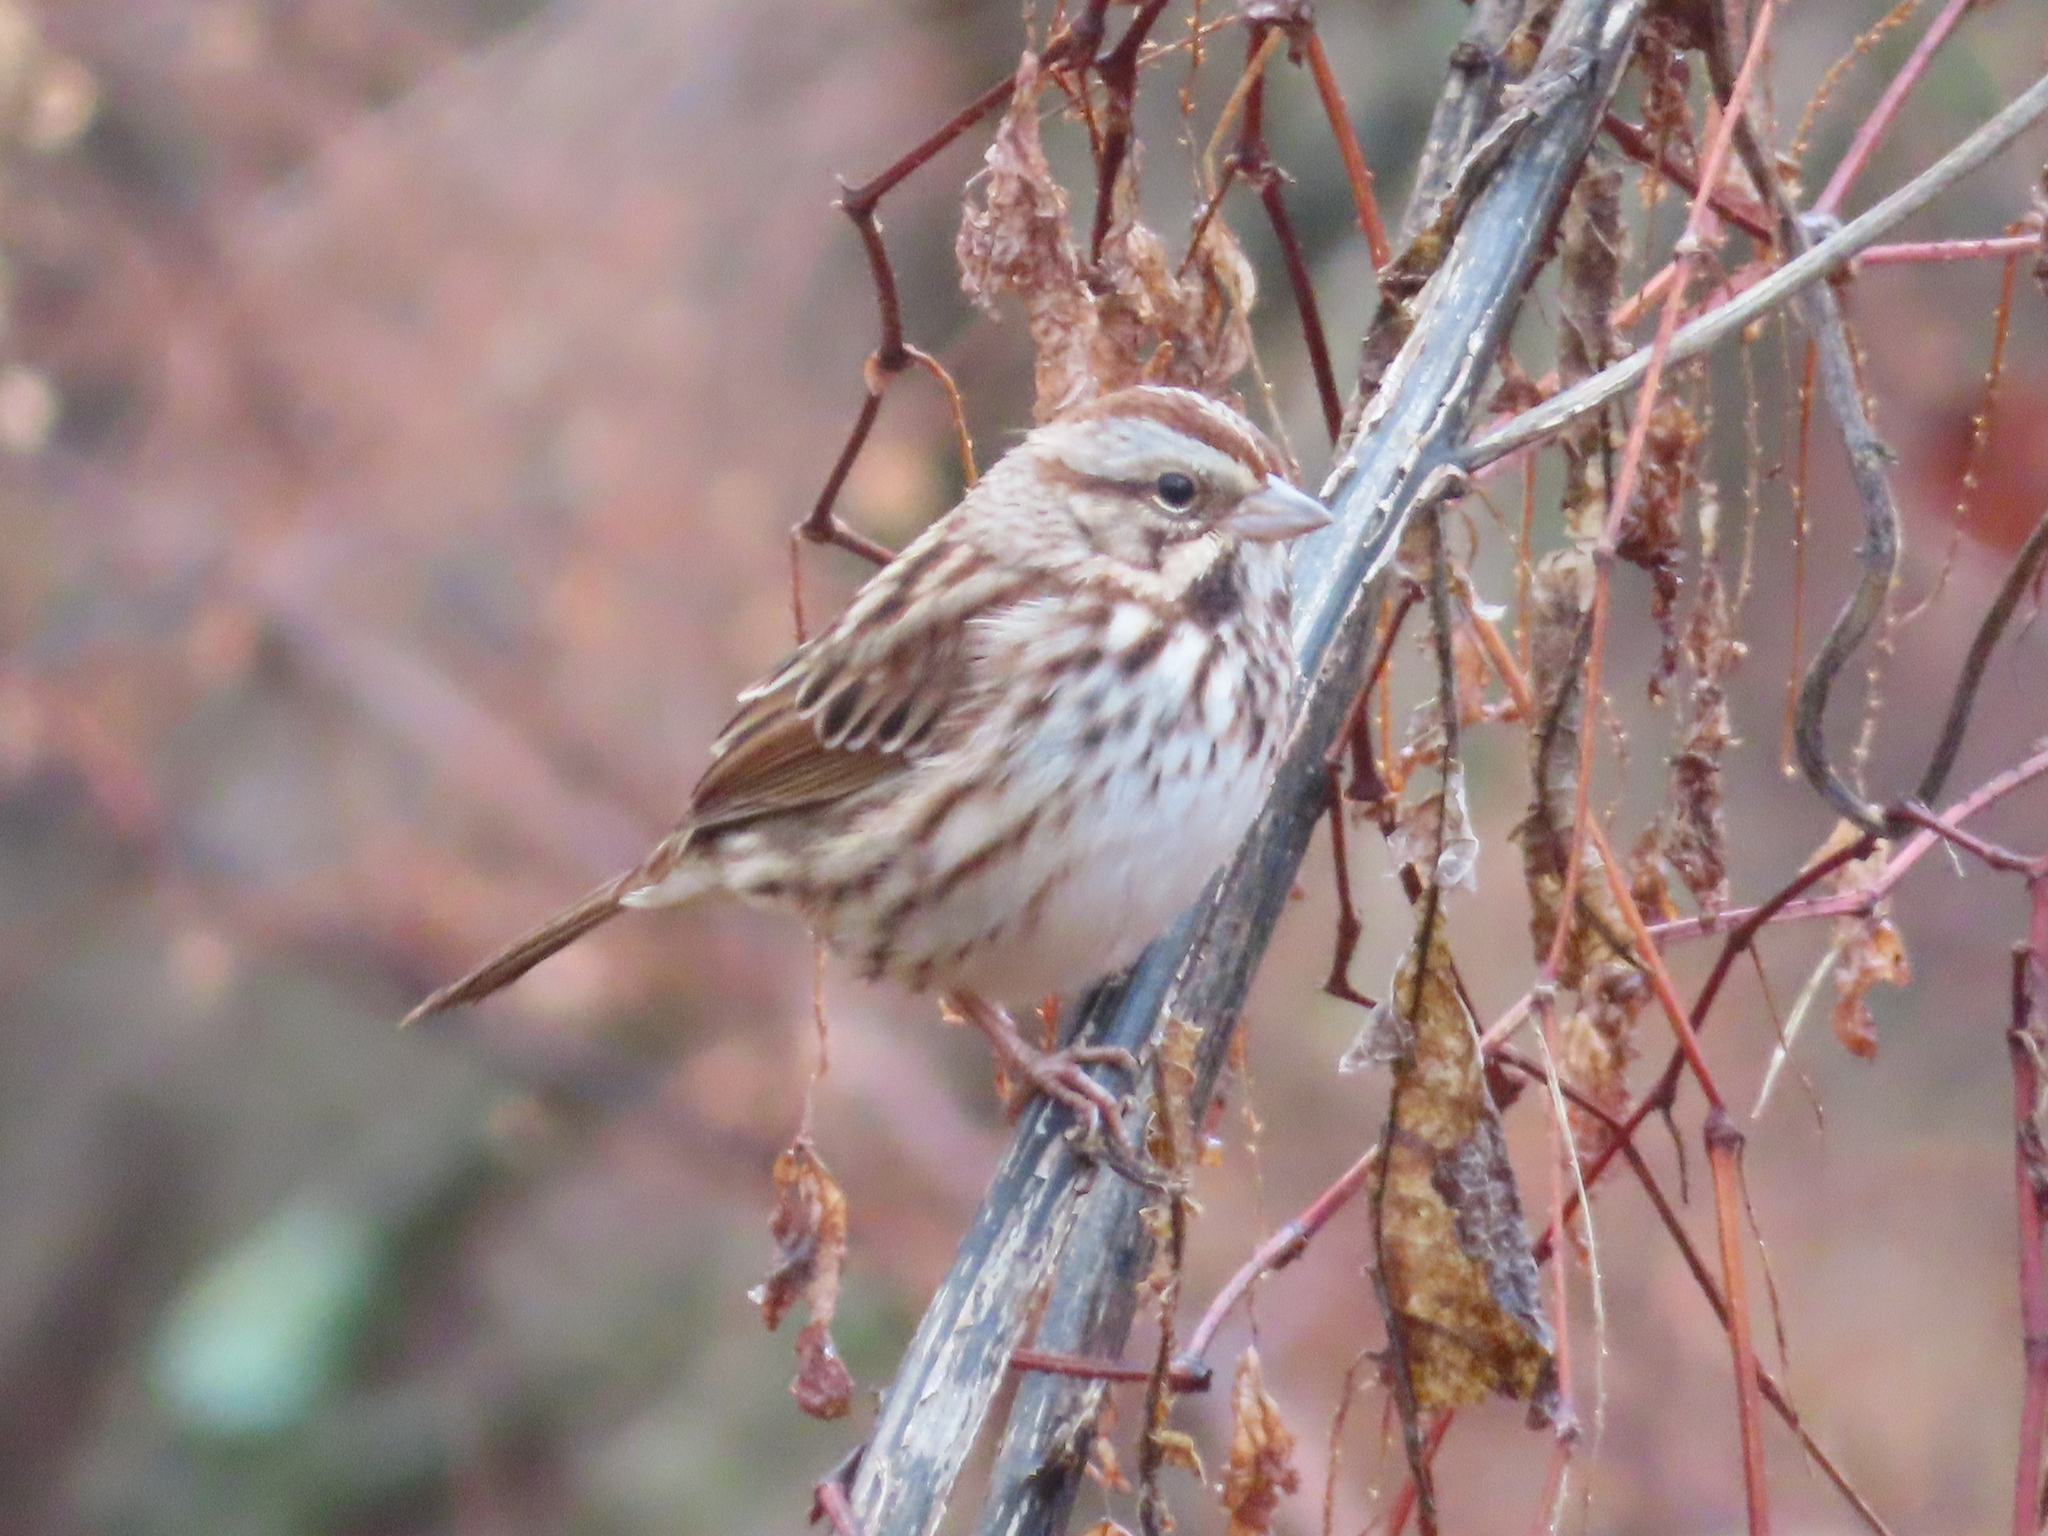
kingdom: Animalia
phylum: Chordata
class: Aves
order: Passeriformes
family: Passerellidae
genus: Melospiza
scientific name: Melospiza melodia
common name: Song sparrow
